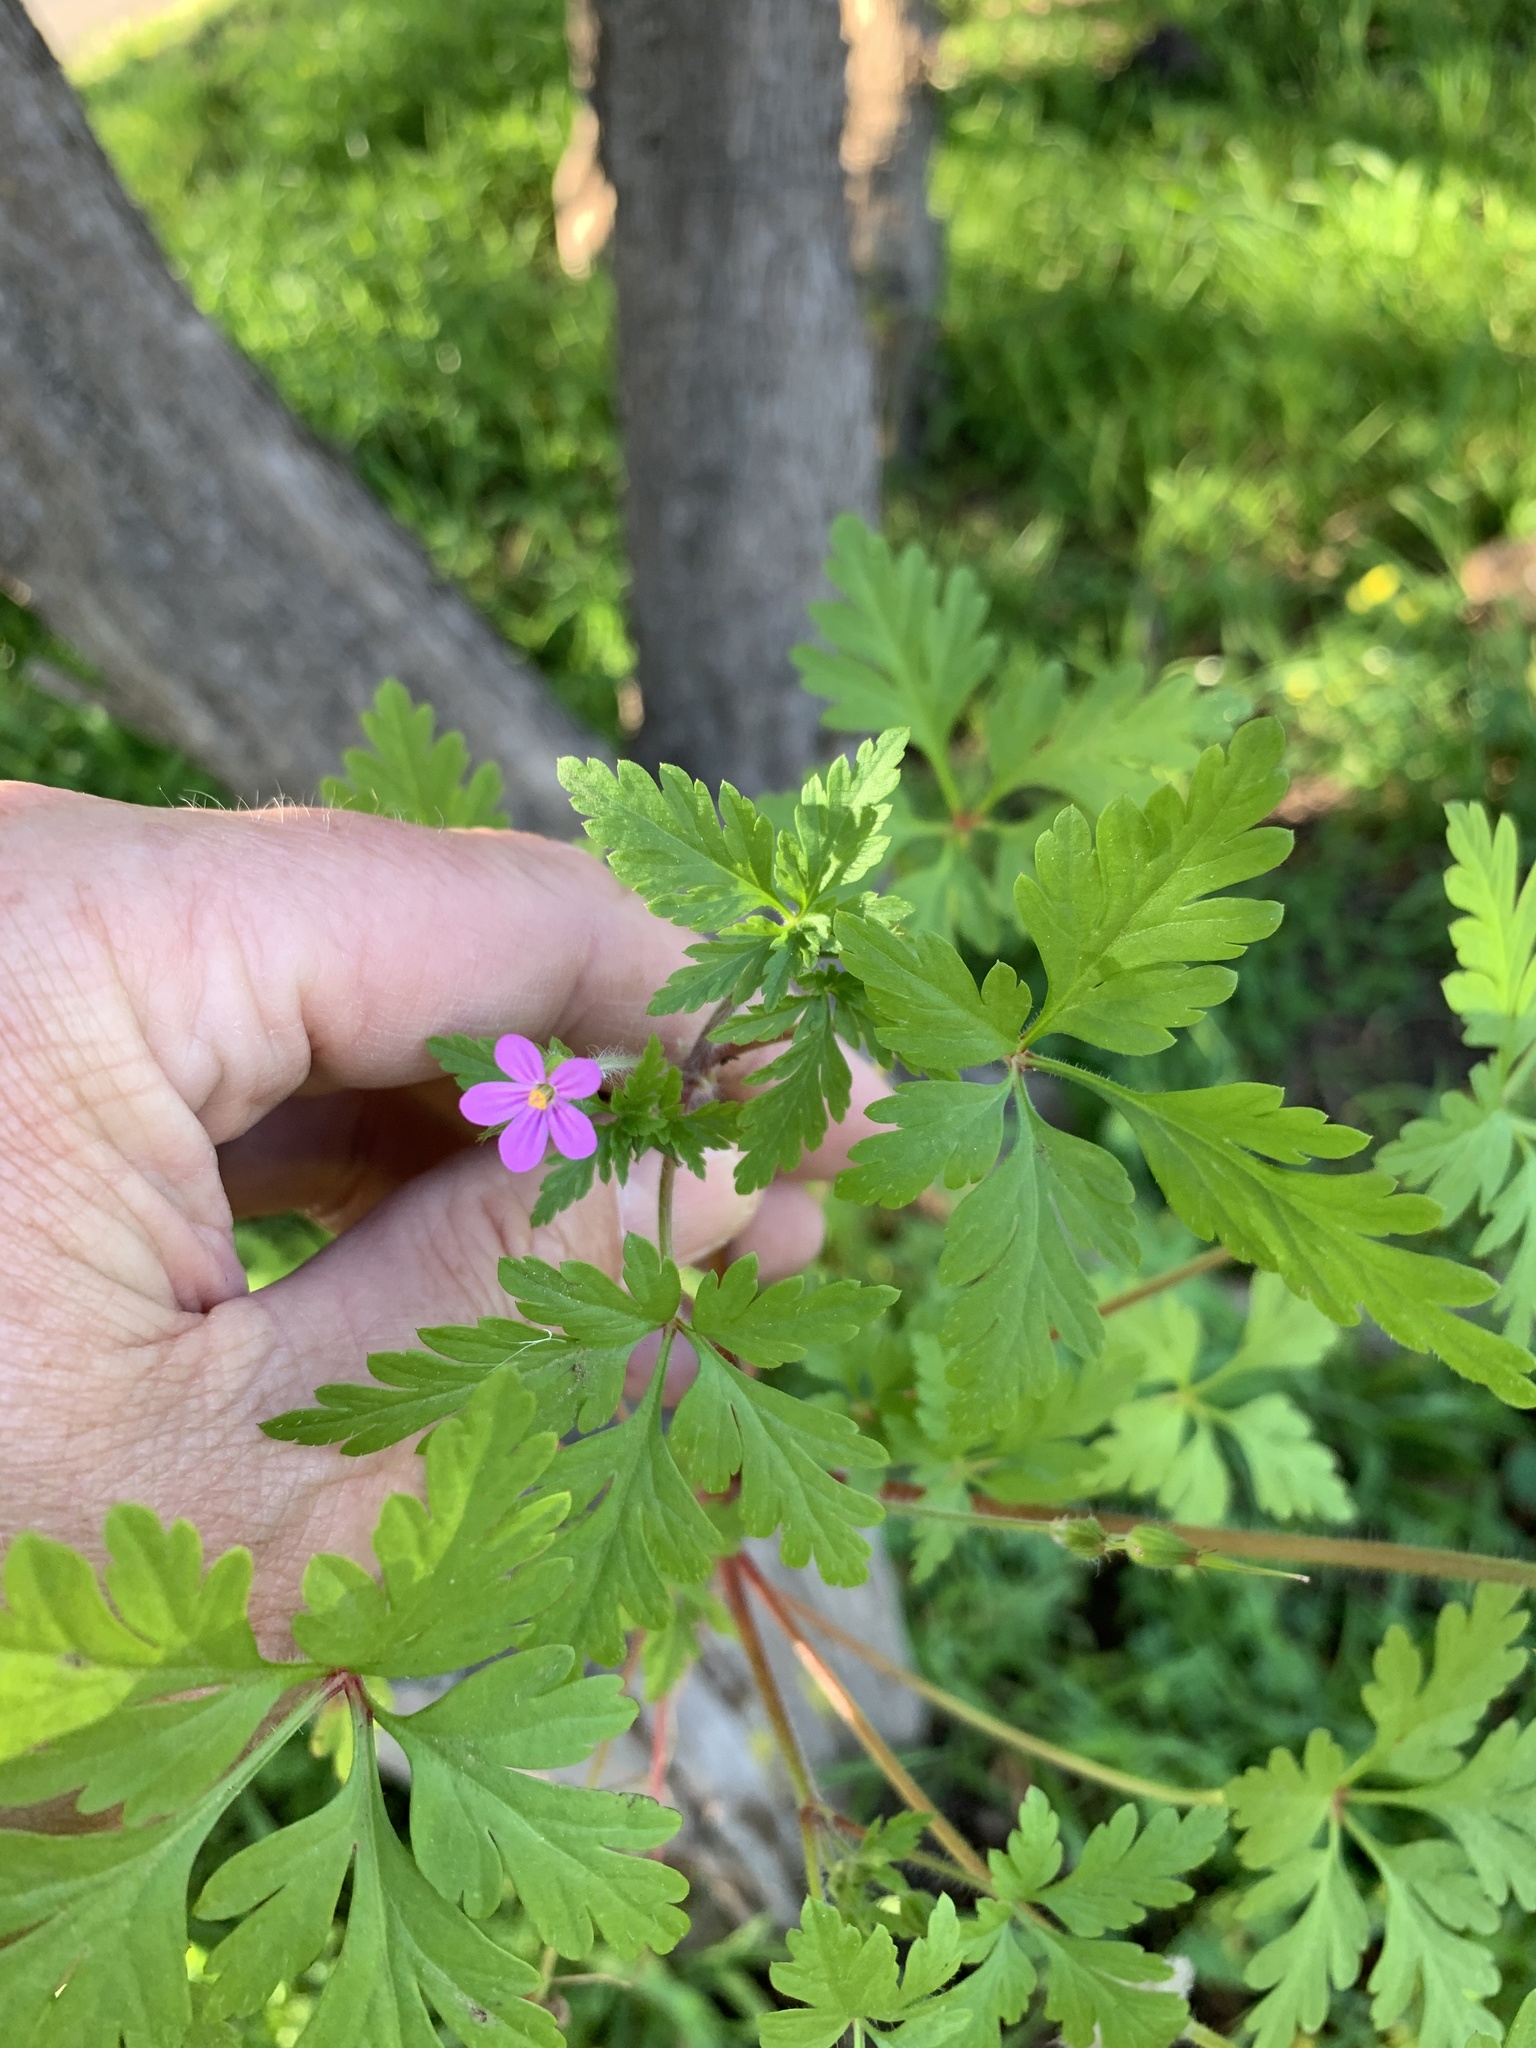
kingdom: Plantae
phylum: Tracheophyta
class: Magnoliopsida
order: Geraniales
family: Geraniaceae
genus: Geranium
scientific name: Geranium purpureum
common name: Little-robin
